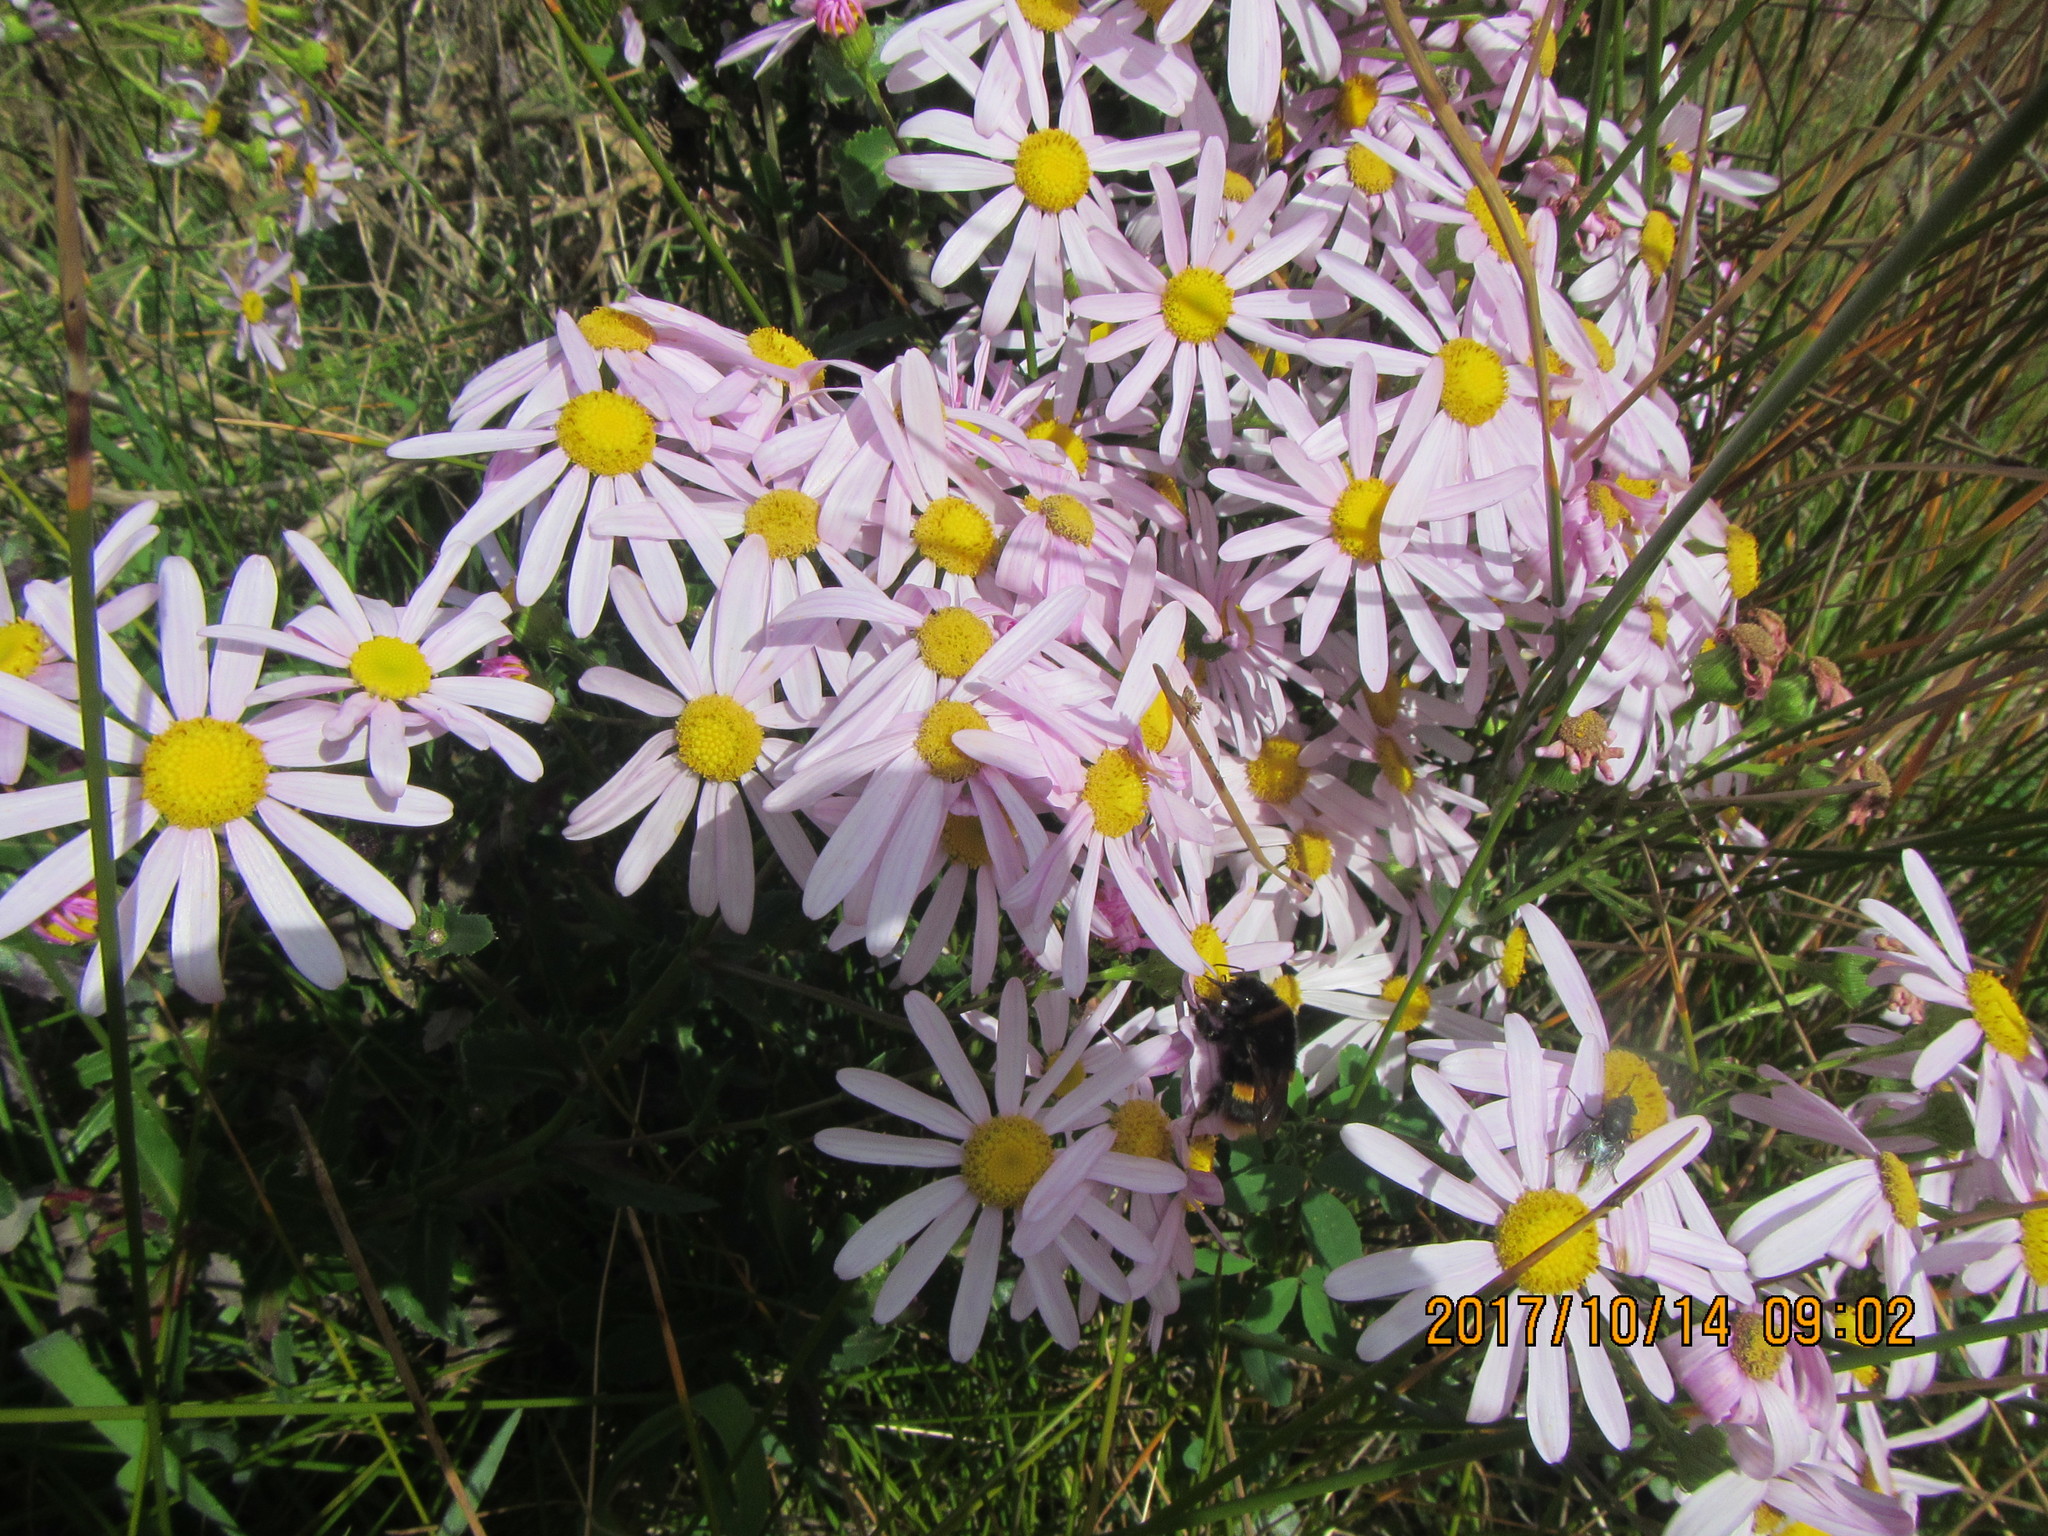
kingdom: Plantae
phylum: Tracheophyta
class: Magnoliopsida
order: Asterales
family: Asteraceae
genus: Senecio
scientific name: Senecio glastifolius
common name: Woad-leaved ragwort
